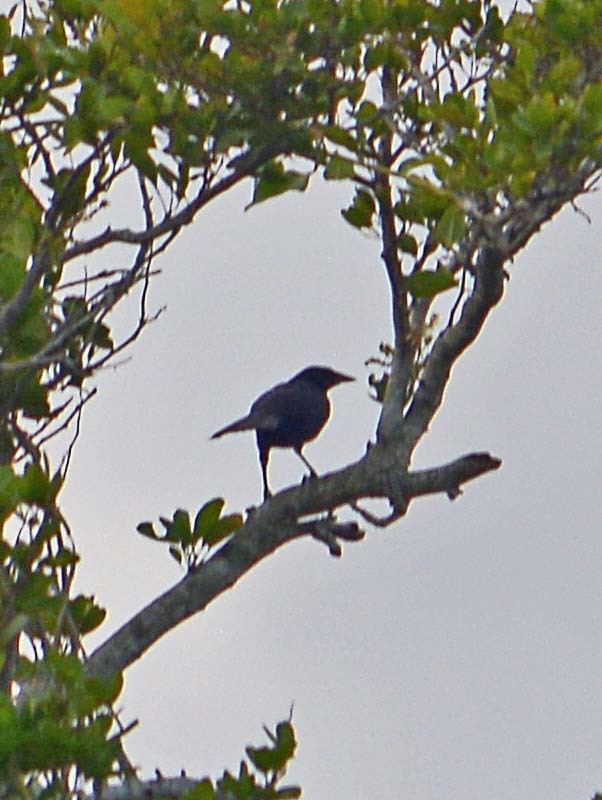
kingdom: Animalia
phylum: Chordata
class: Aves
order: Passeriformes
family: Icteridae
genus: Psarocolius
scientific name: Psarocolius montezuma
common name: Montezuma oropendola
